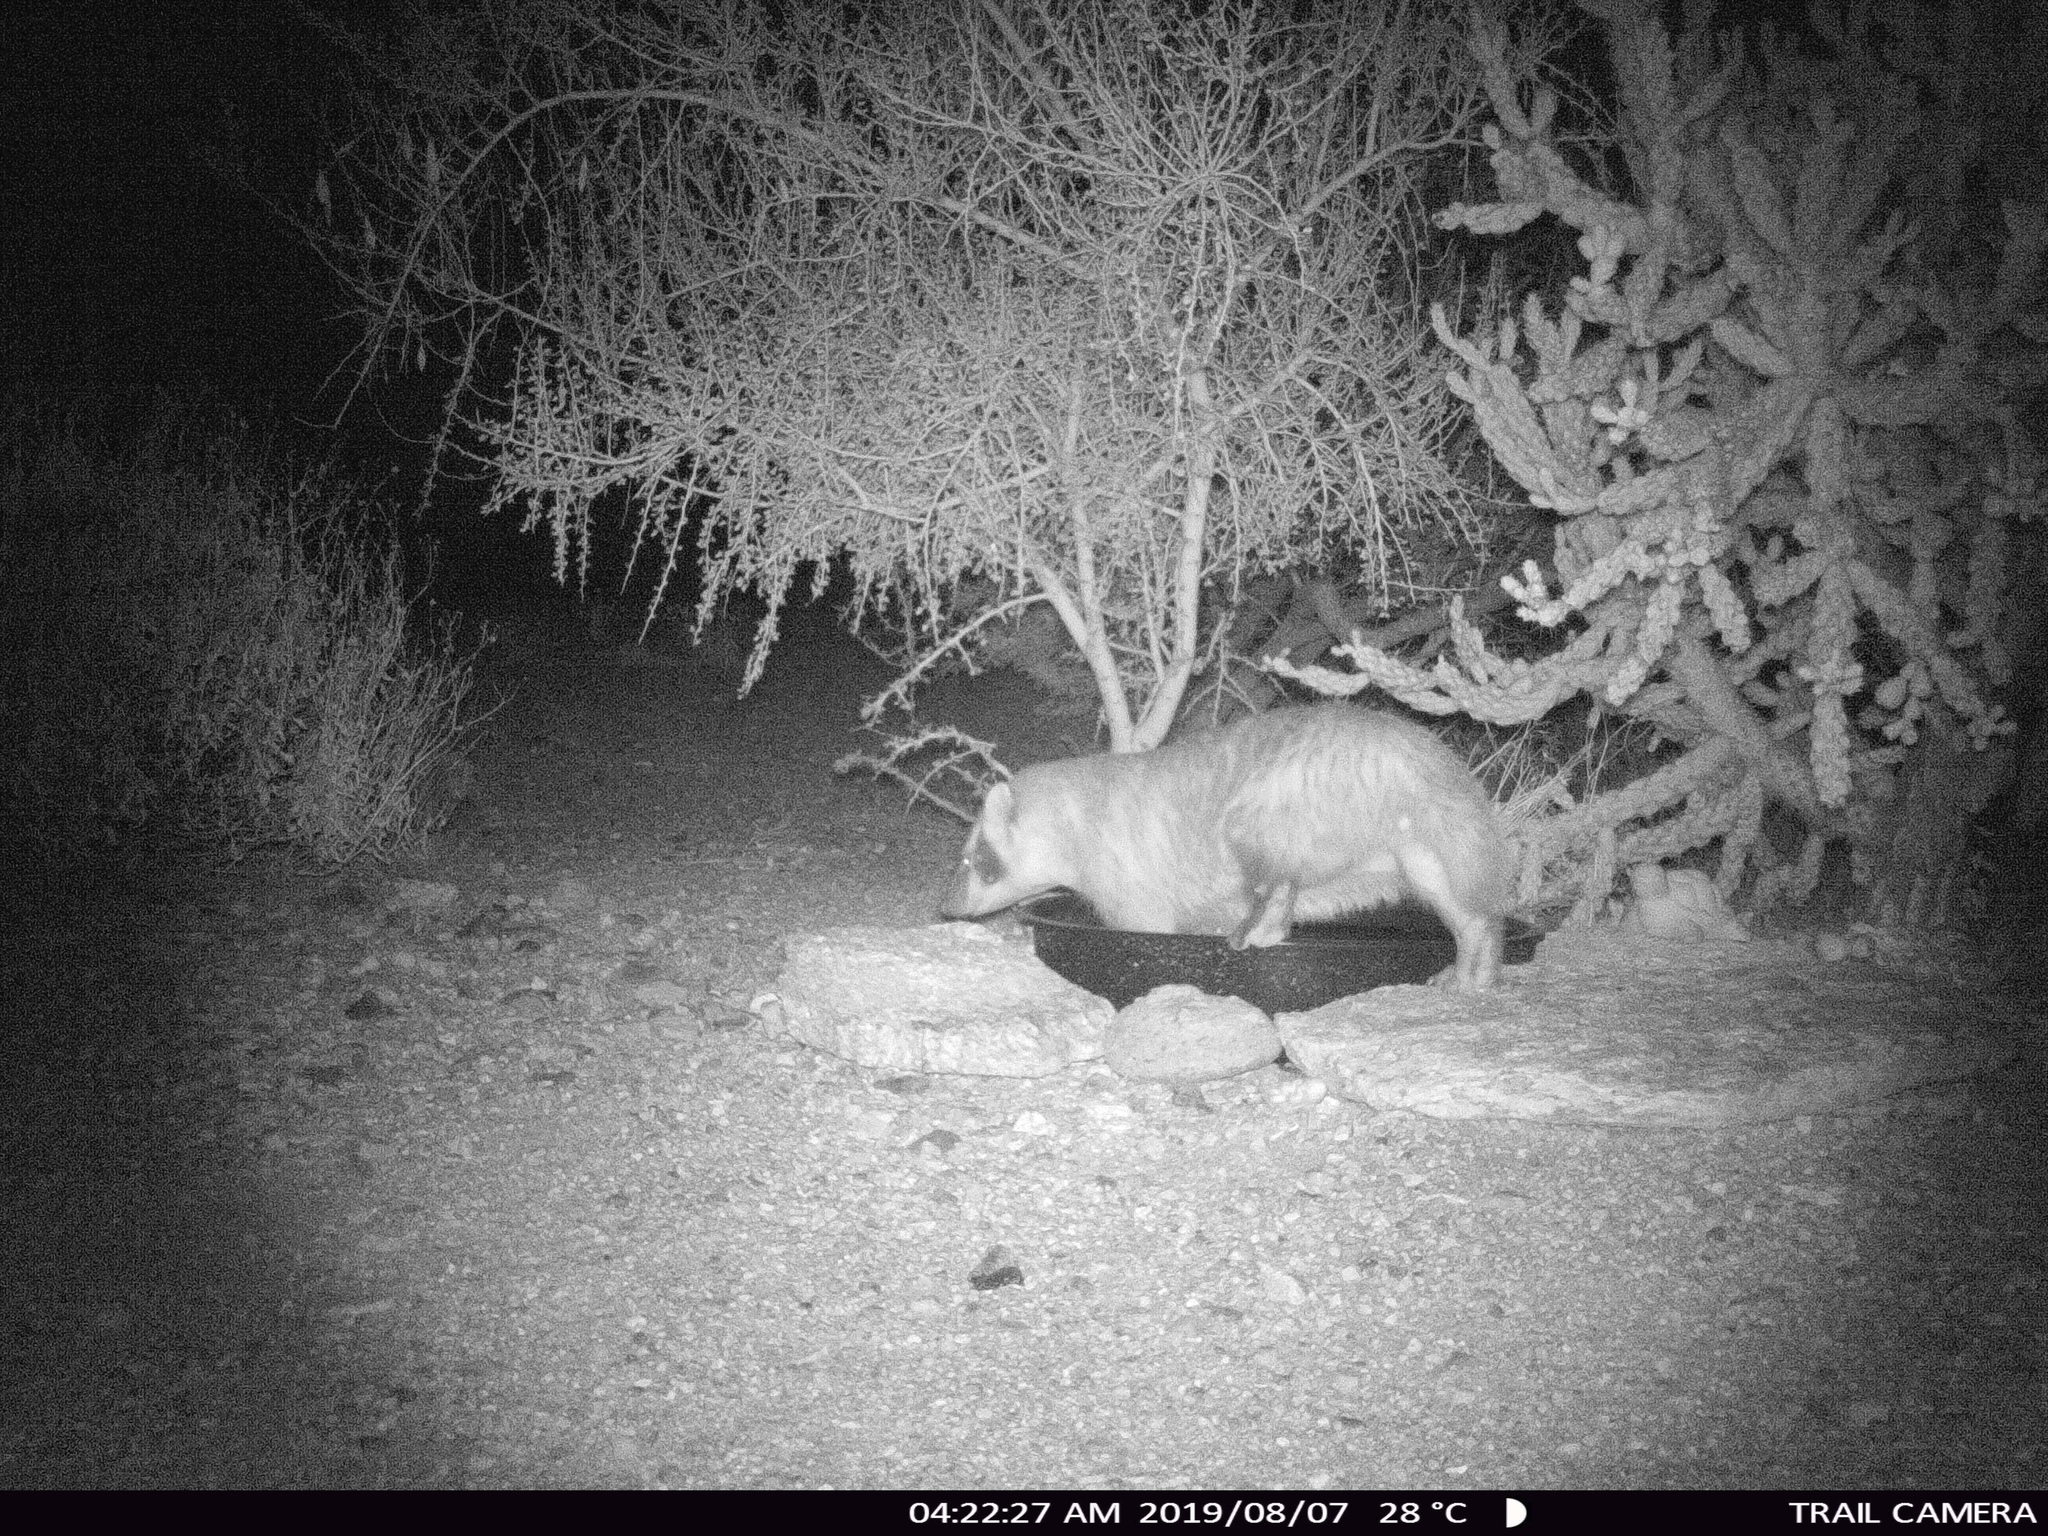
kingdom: Animalia
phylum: Chordata
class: Mammalia
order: Carnivora
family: Mustelidae
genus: Taxidea
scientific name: Taxidea taxus
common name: American badger
